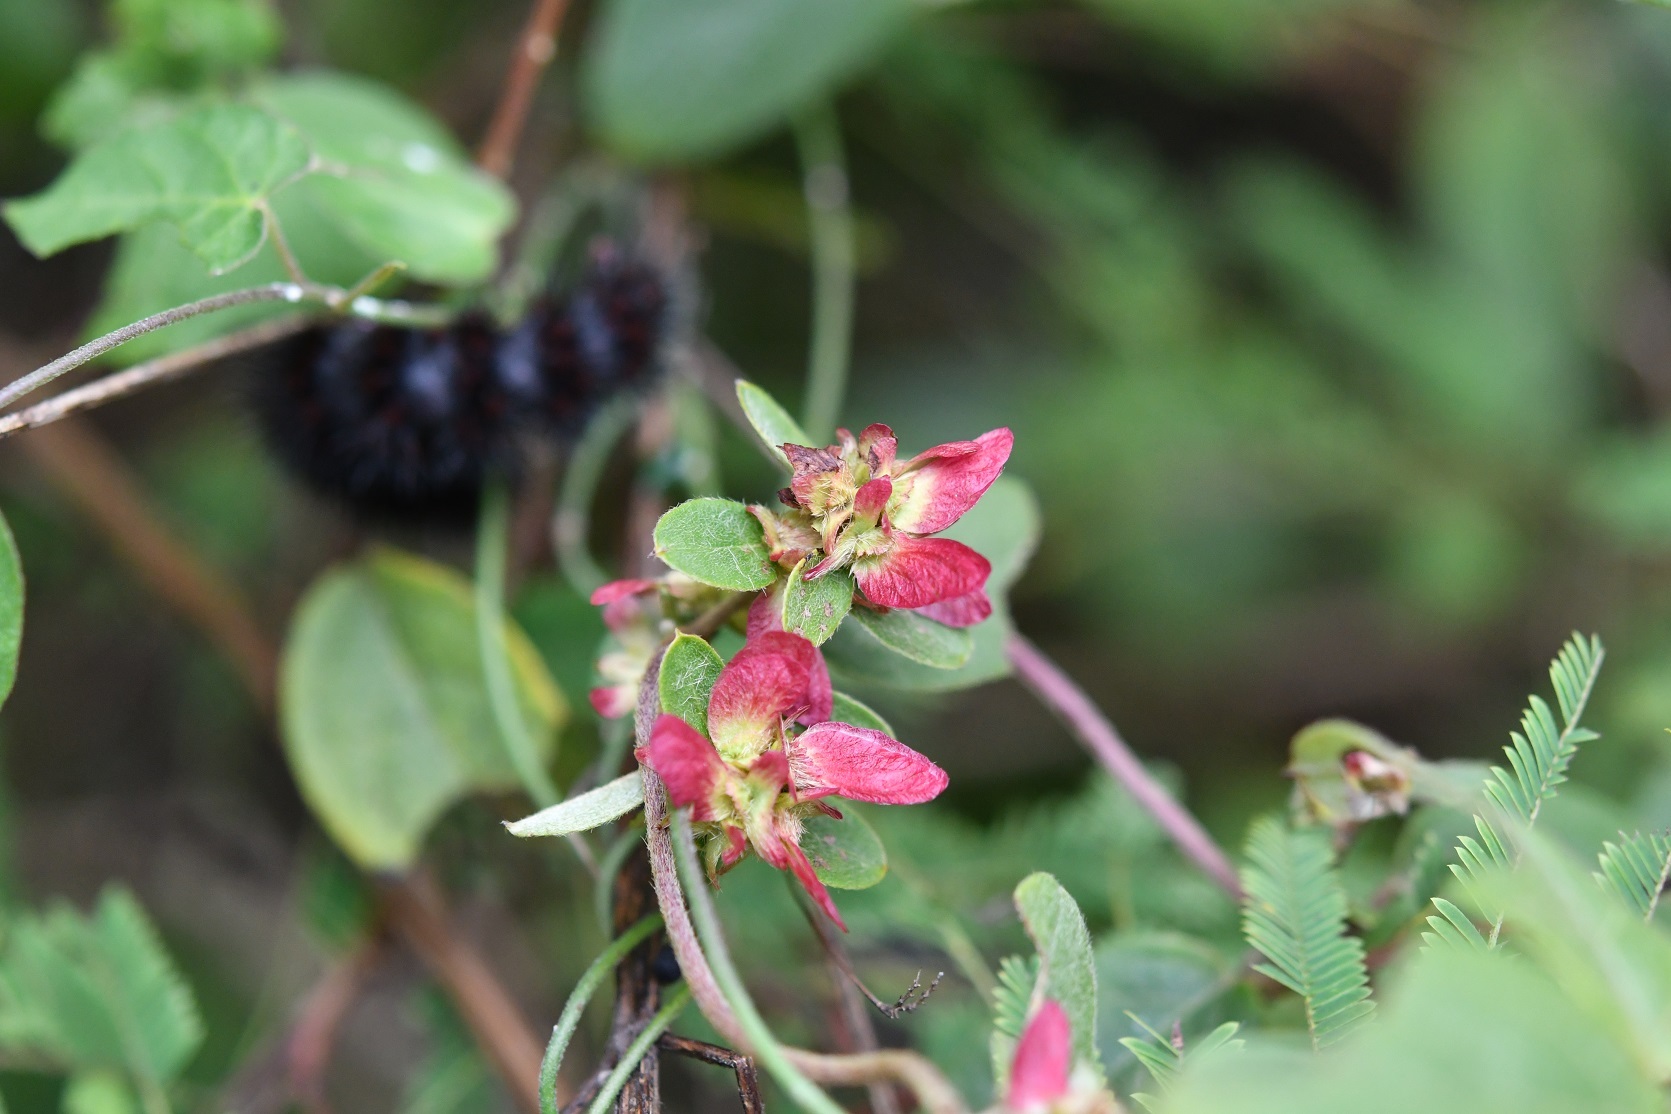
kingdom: Plantae
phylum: Tracheophyta
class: Magnoliopsida
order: Malpighiales
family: Malpighiaceae
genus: Gaudichaudia
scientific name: Gaudichaudia cynanchoides
